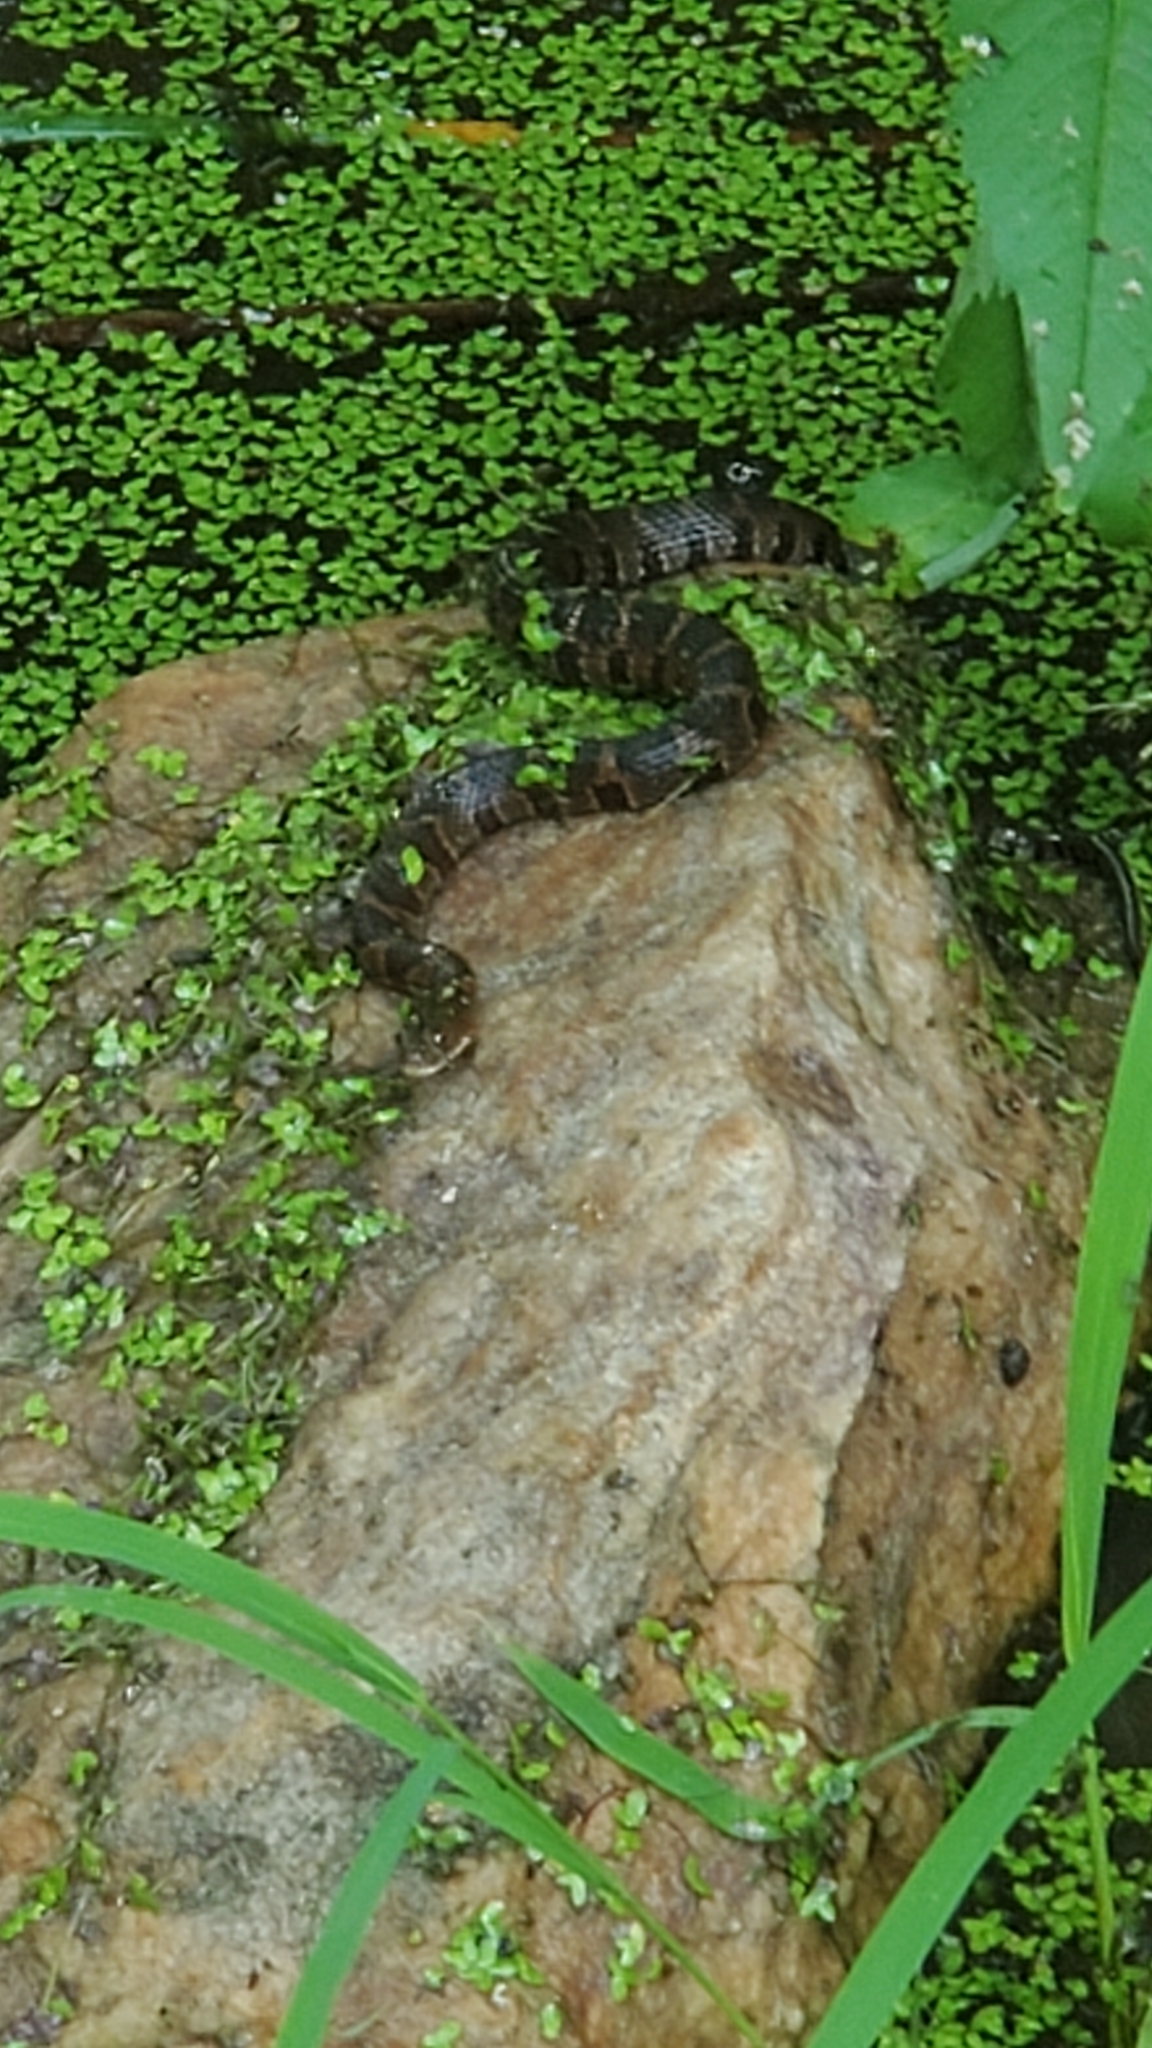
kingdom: Animalia
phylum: Chordata
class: Squamata
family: Colubridae
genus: Nerodia
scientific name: Nerodia sipedon
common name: Northern water snake
